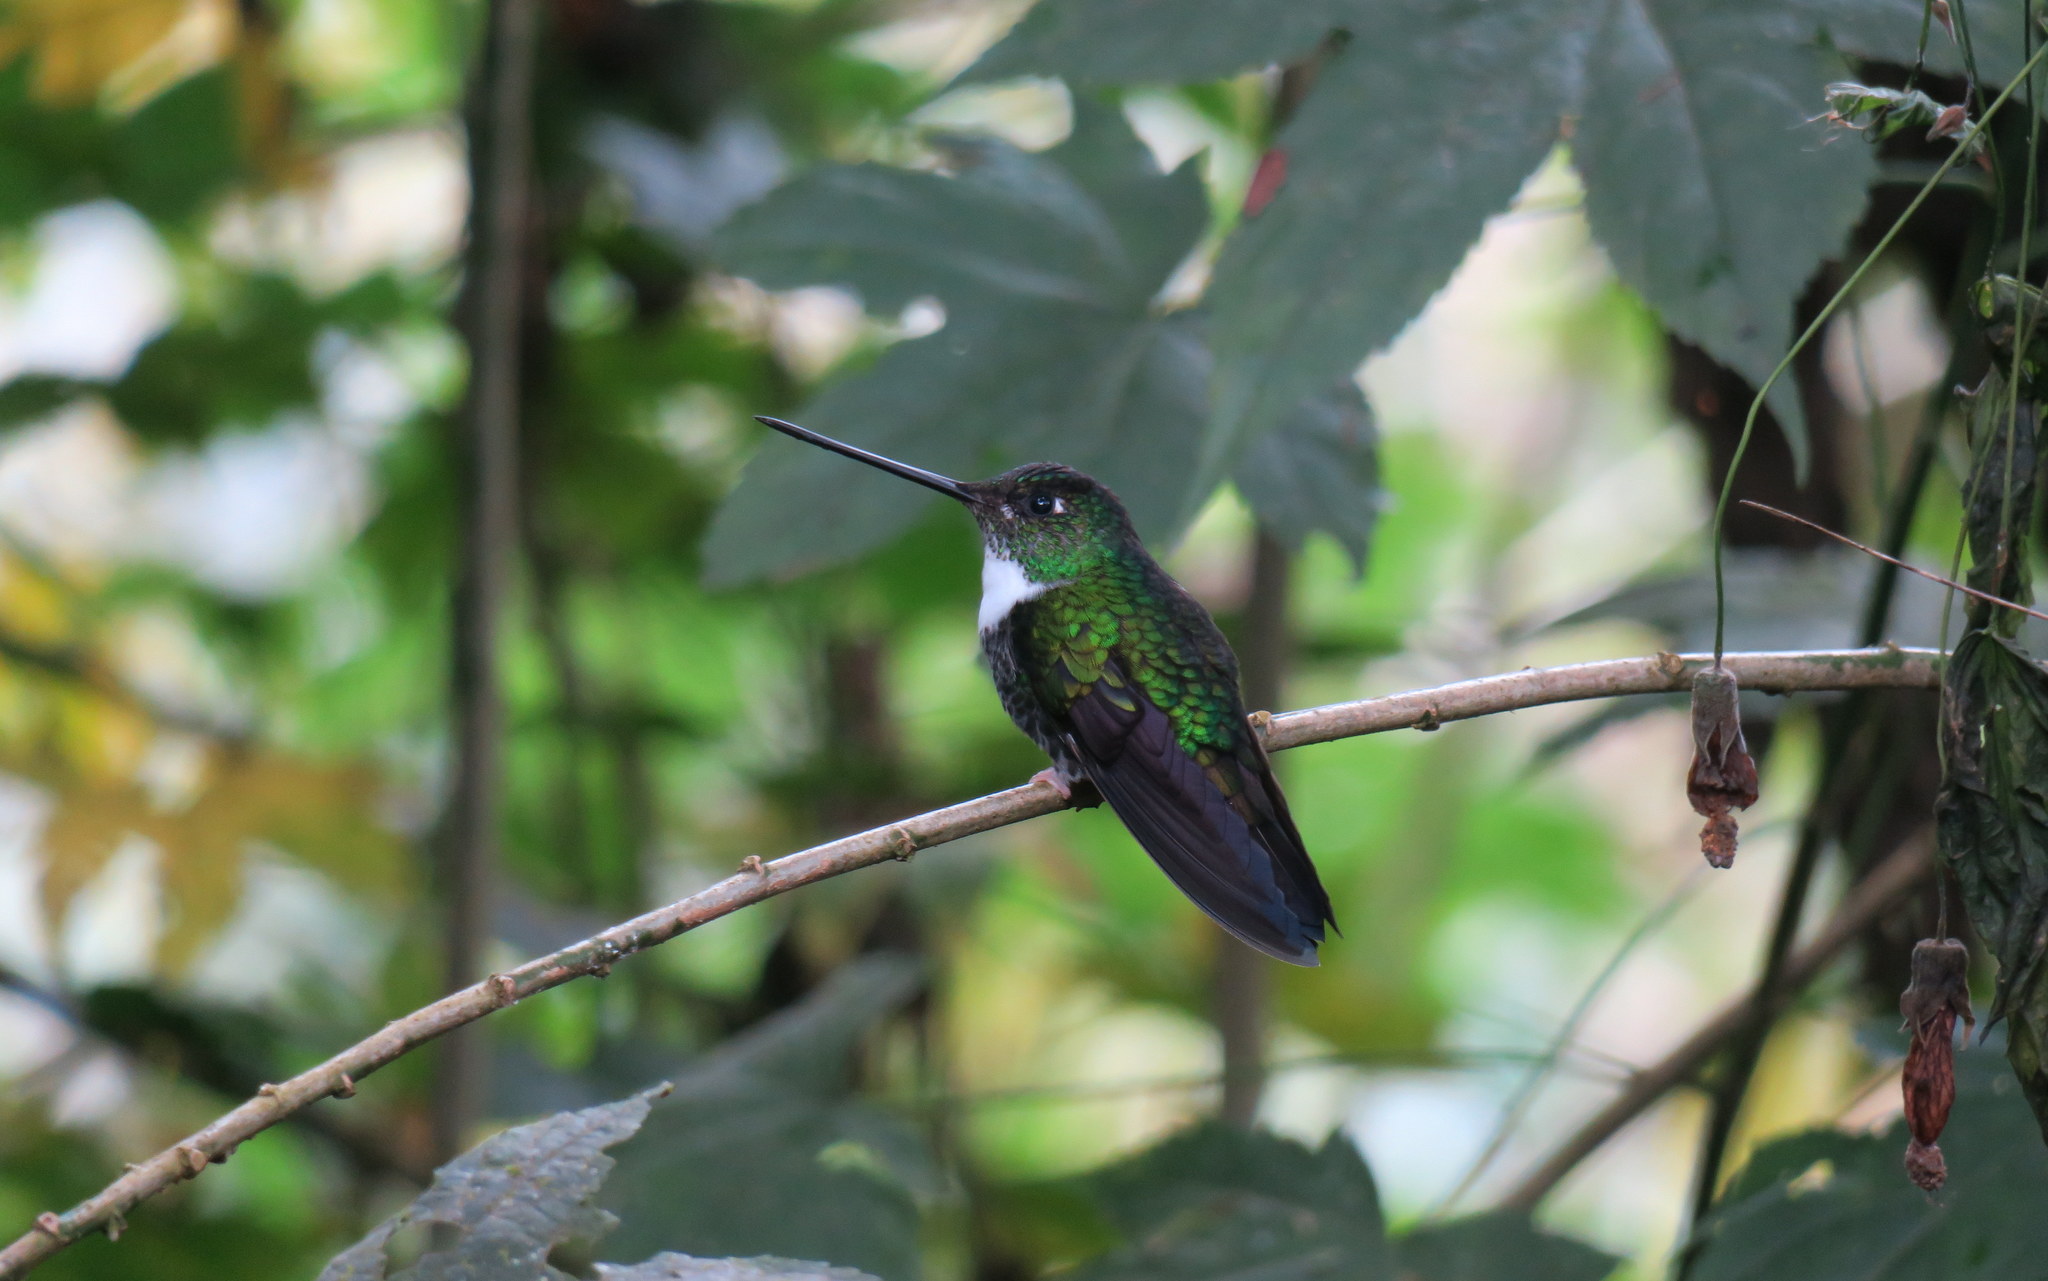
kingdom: Animalia
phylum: Chordata
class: Aves
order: Apodiformes
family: Trochilidae
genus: Coeligena
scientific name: Coeligena torquata
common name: Collared inca
